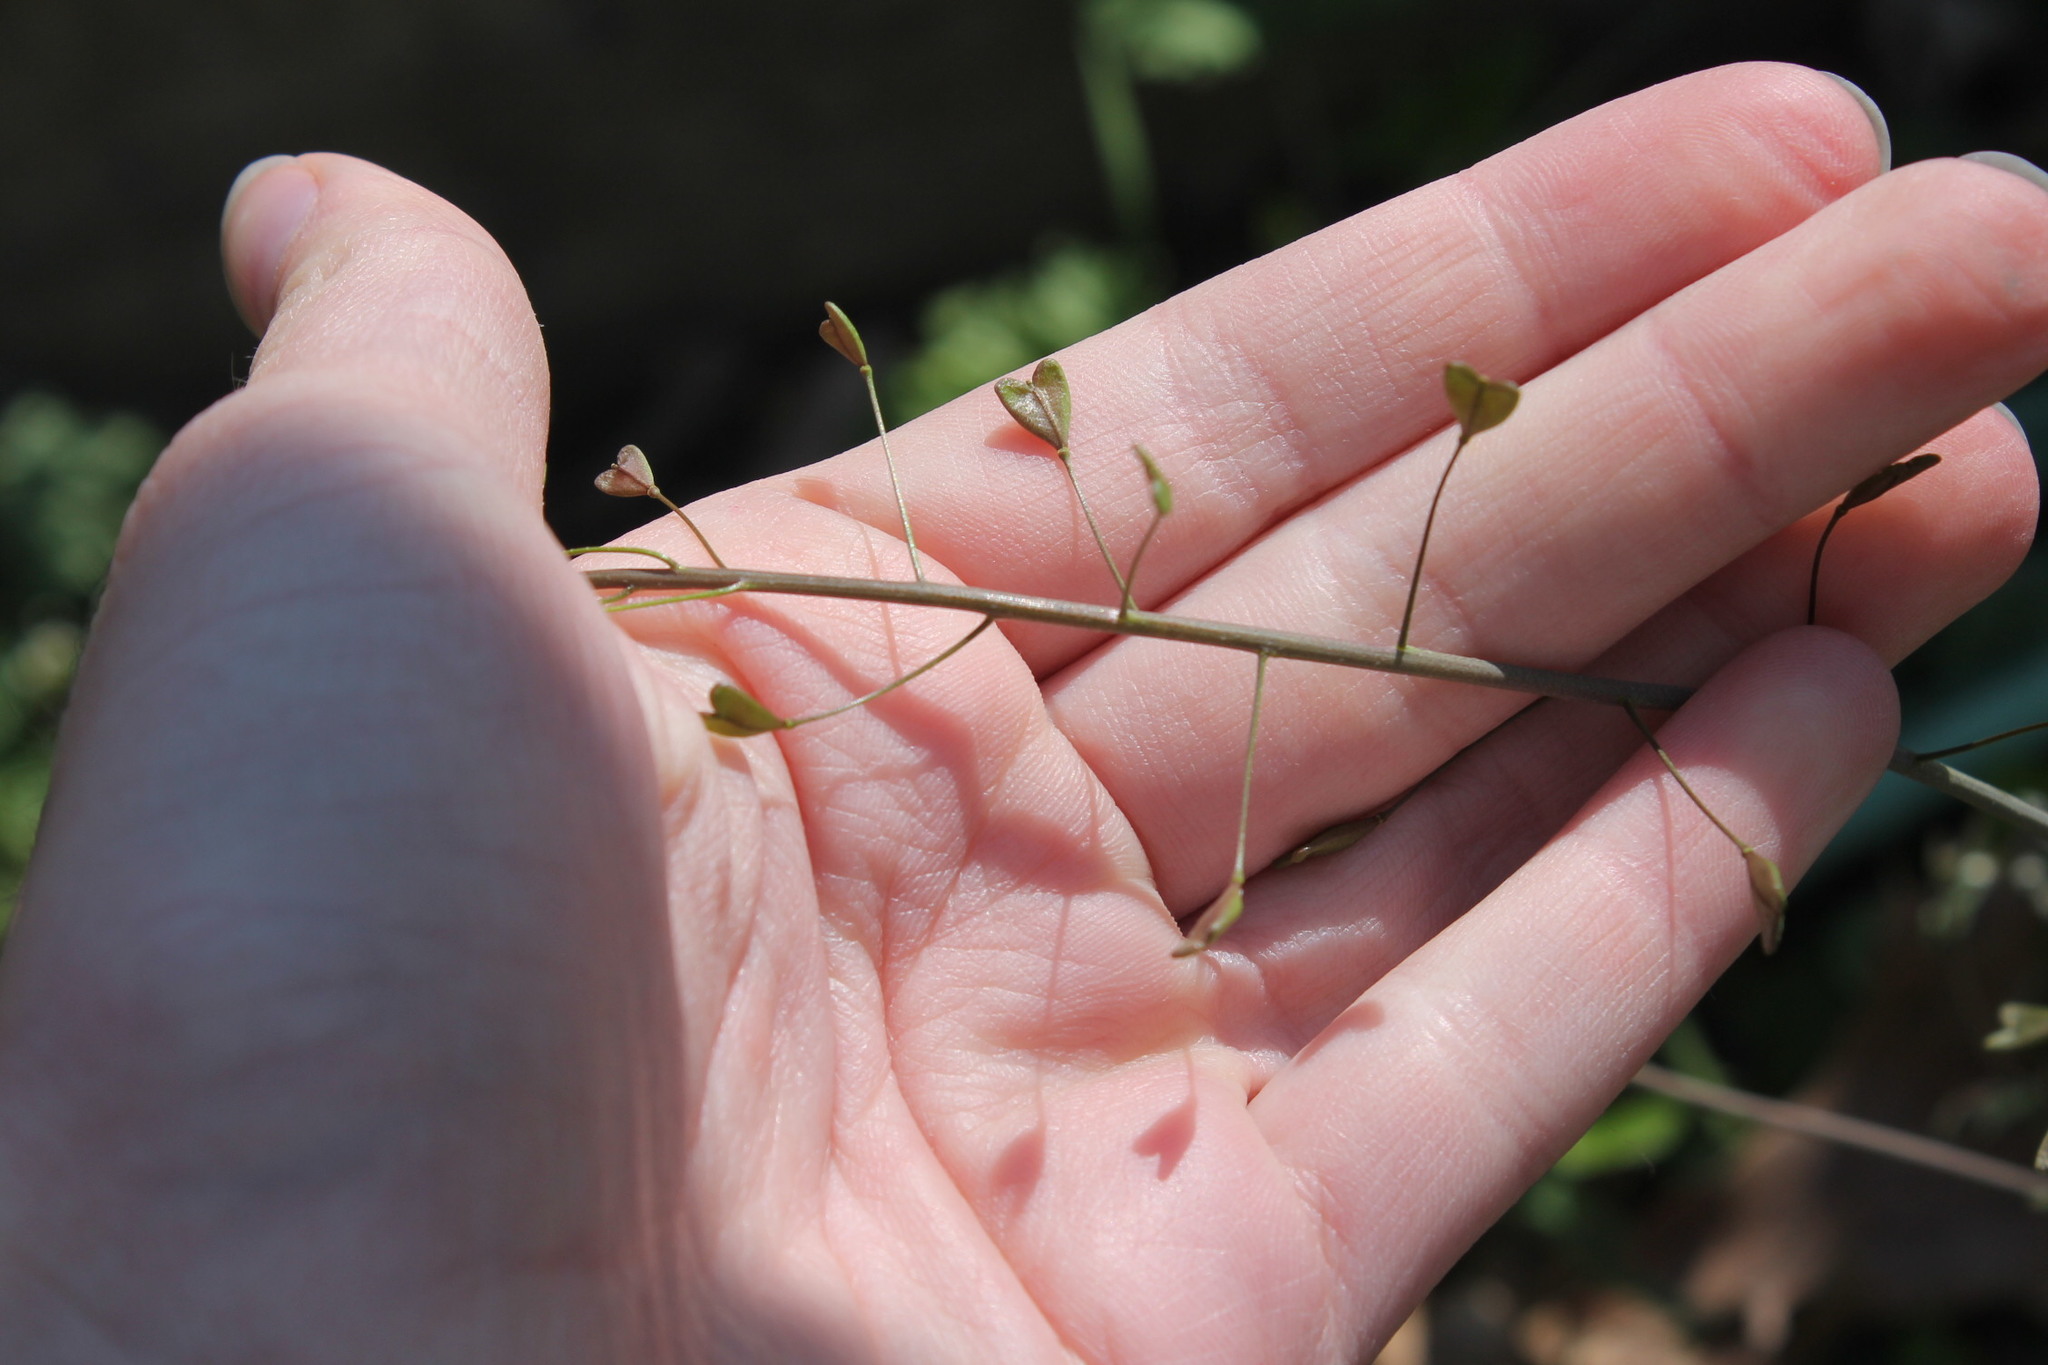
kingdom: Plantae
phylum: Tracheophyta
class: Magnoliopsida
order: Brassicales
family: Brassicaceae
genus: Capsella
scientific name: Capsella bursa-pastoris
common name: Shepherd's purse
